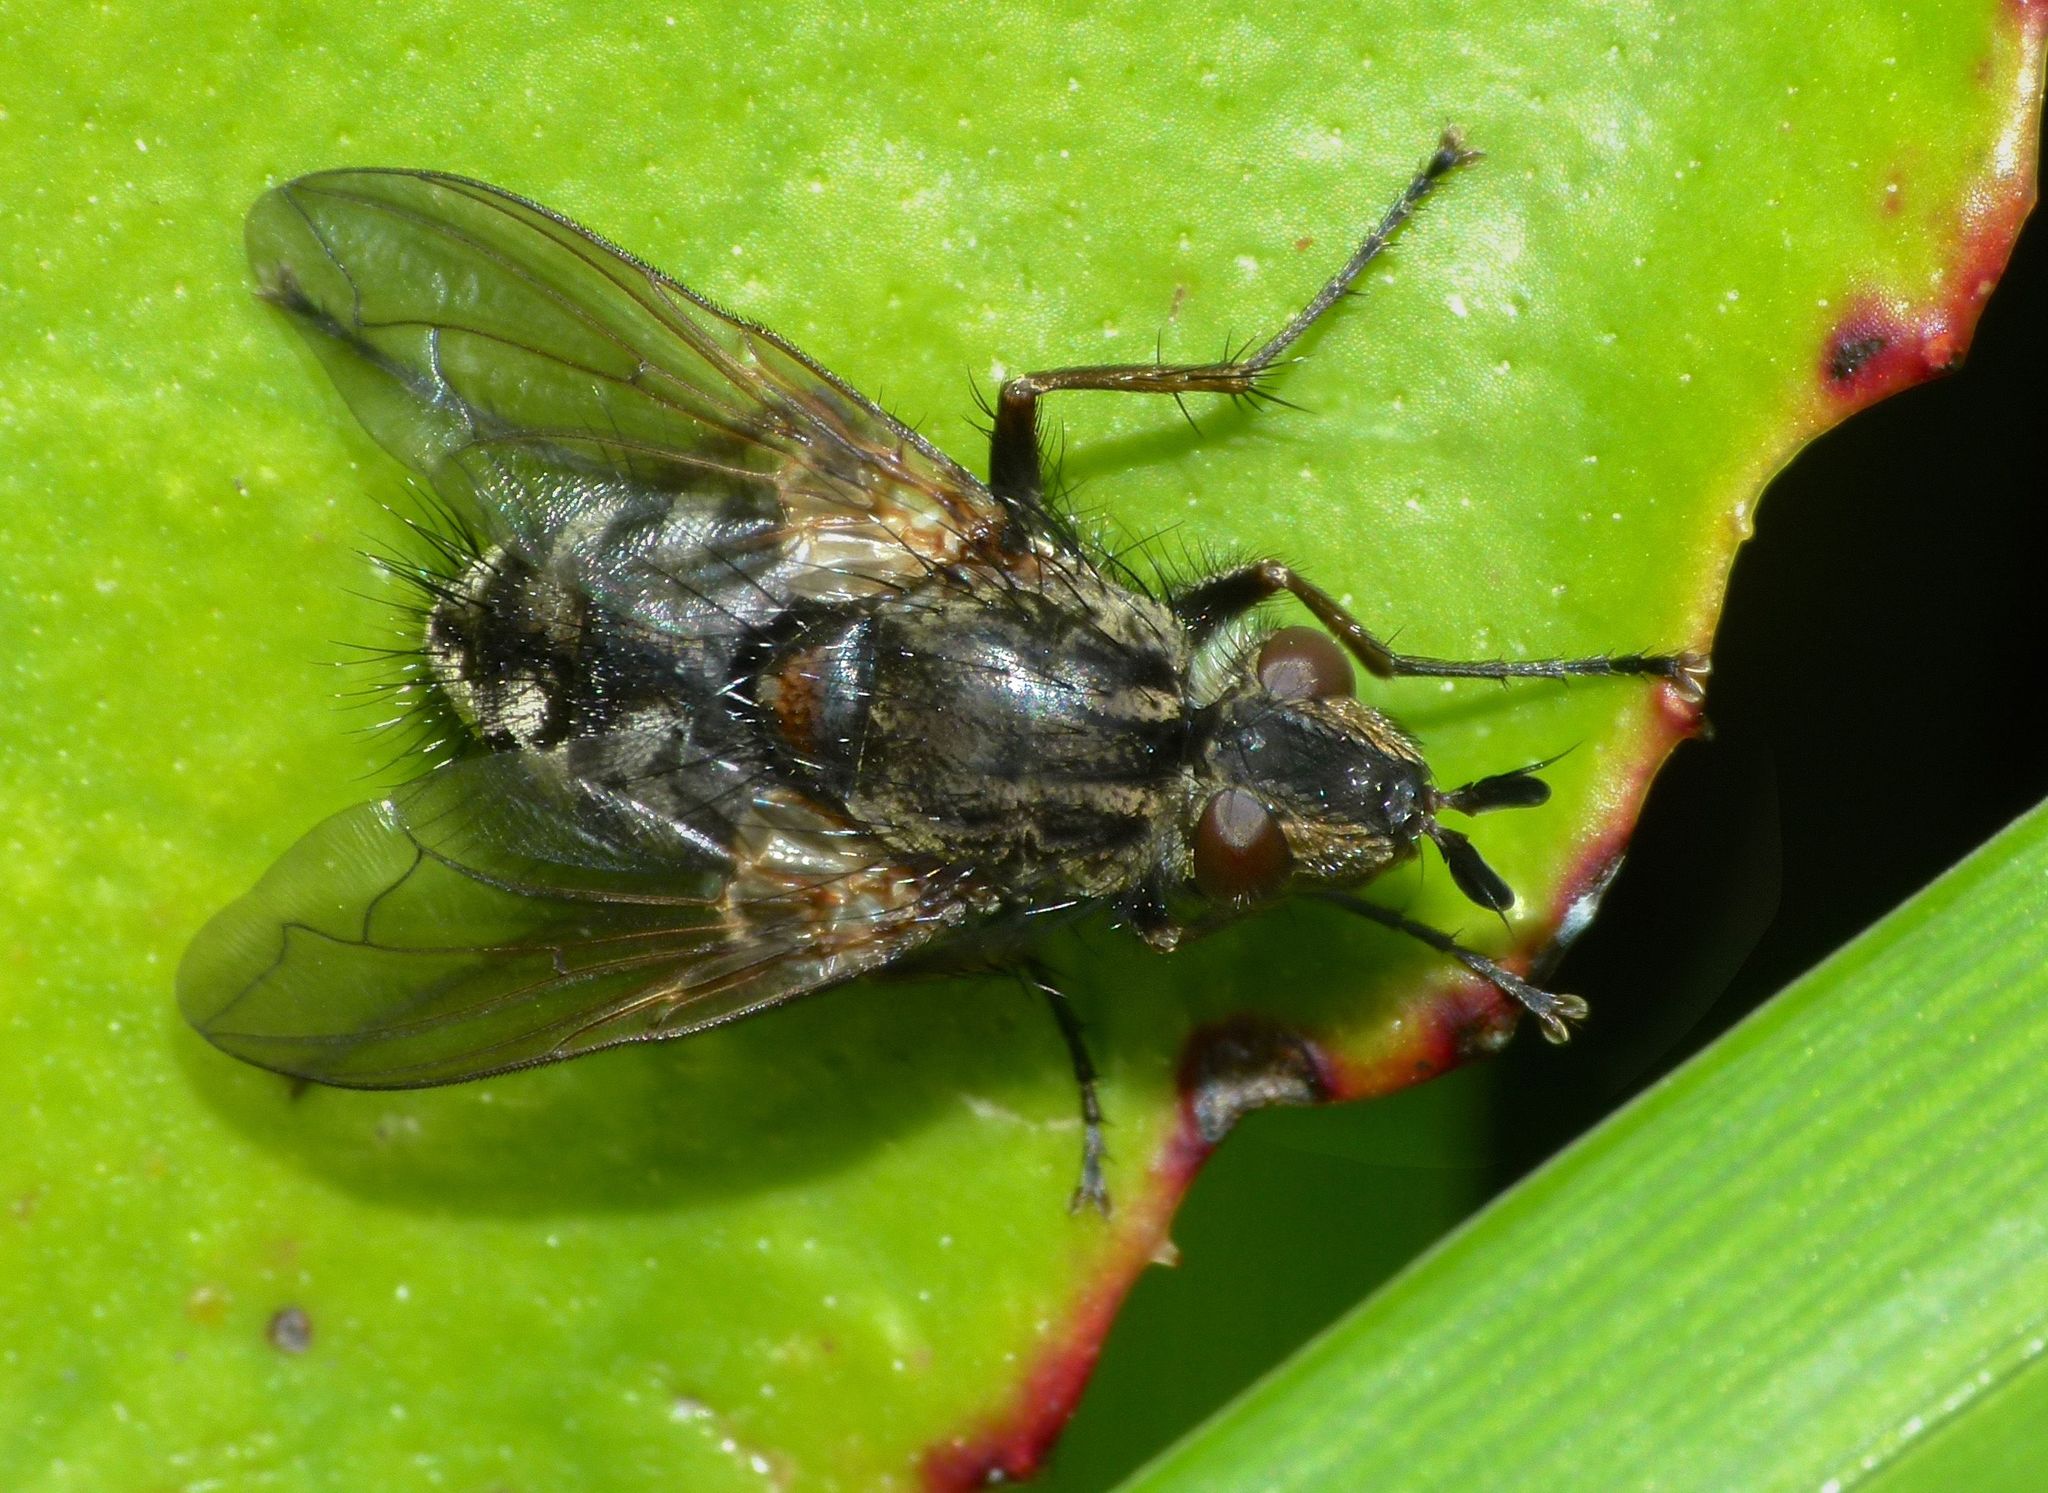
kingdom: Animalia
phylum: Arthropoda
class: Insecta
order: Diptera
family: Tachinidae
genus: Peremptor
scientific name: Peremptor modicus
